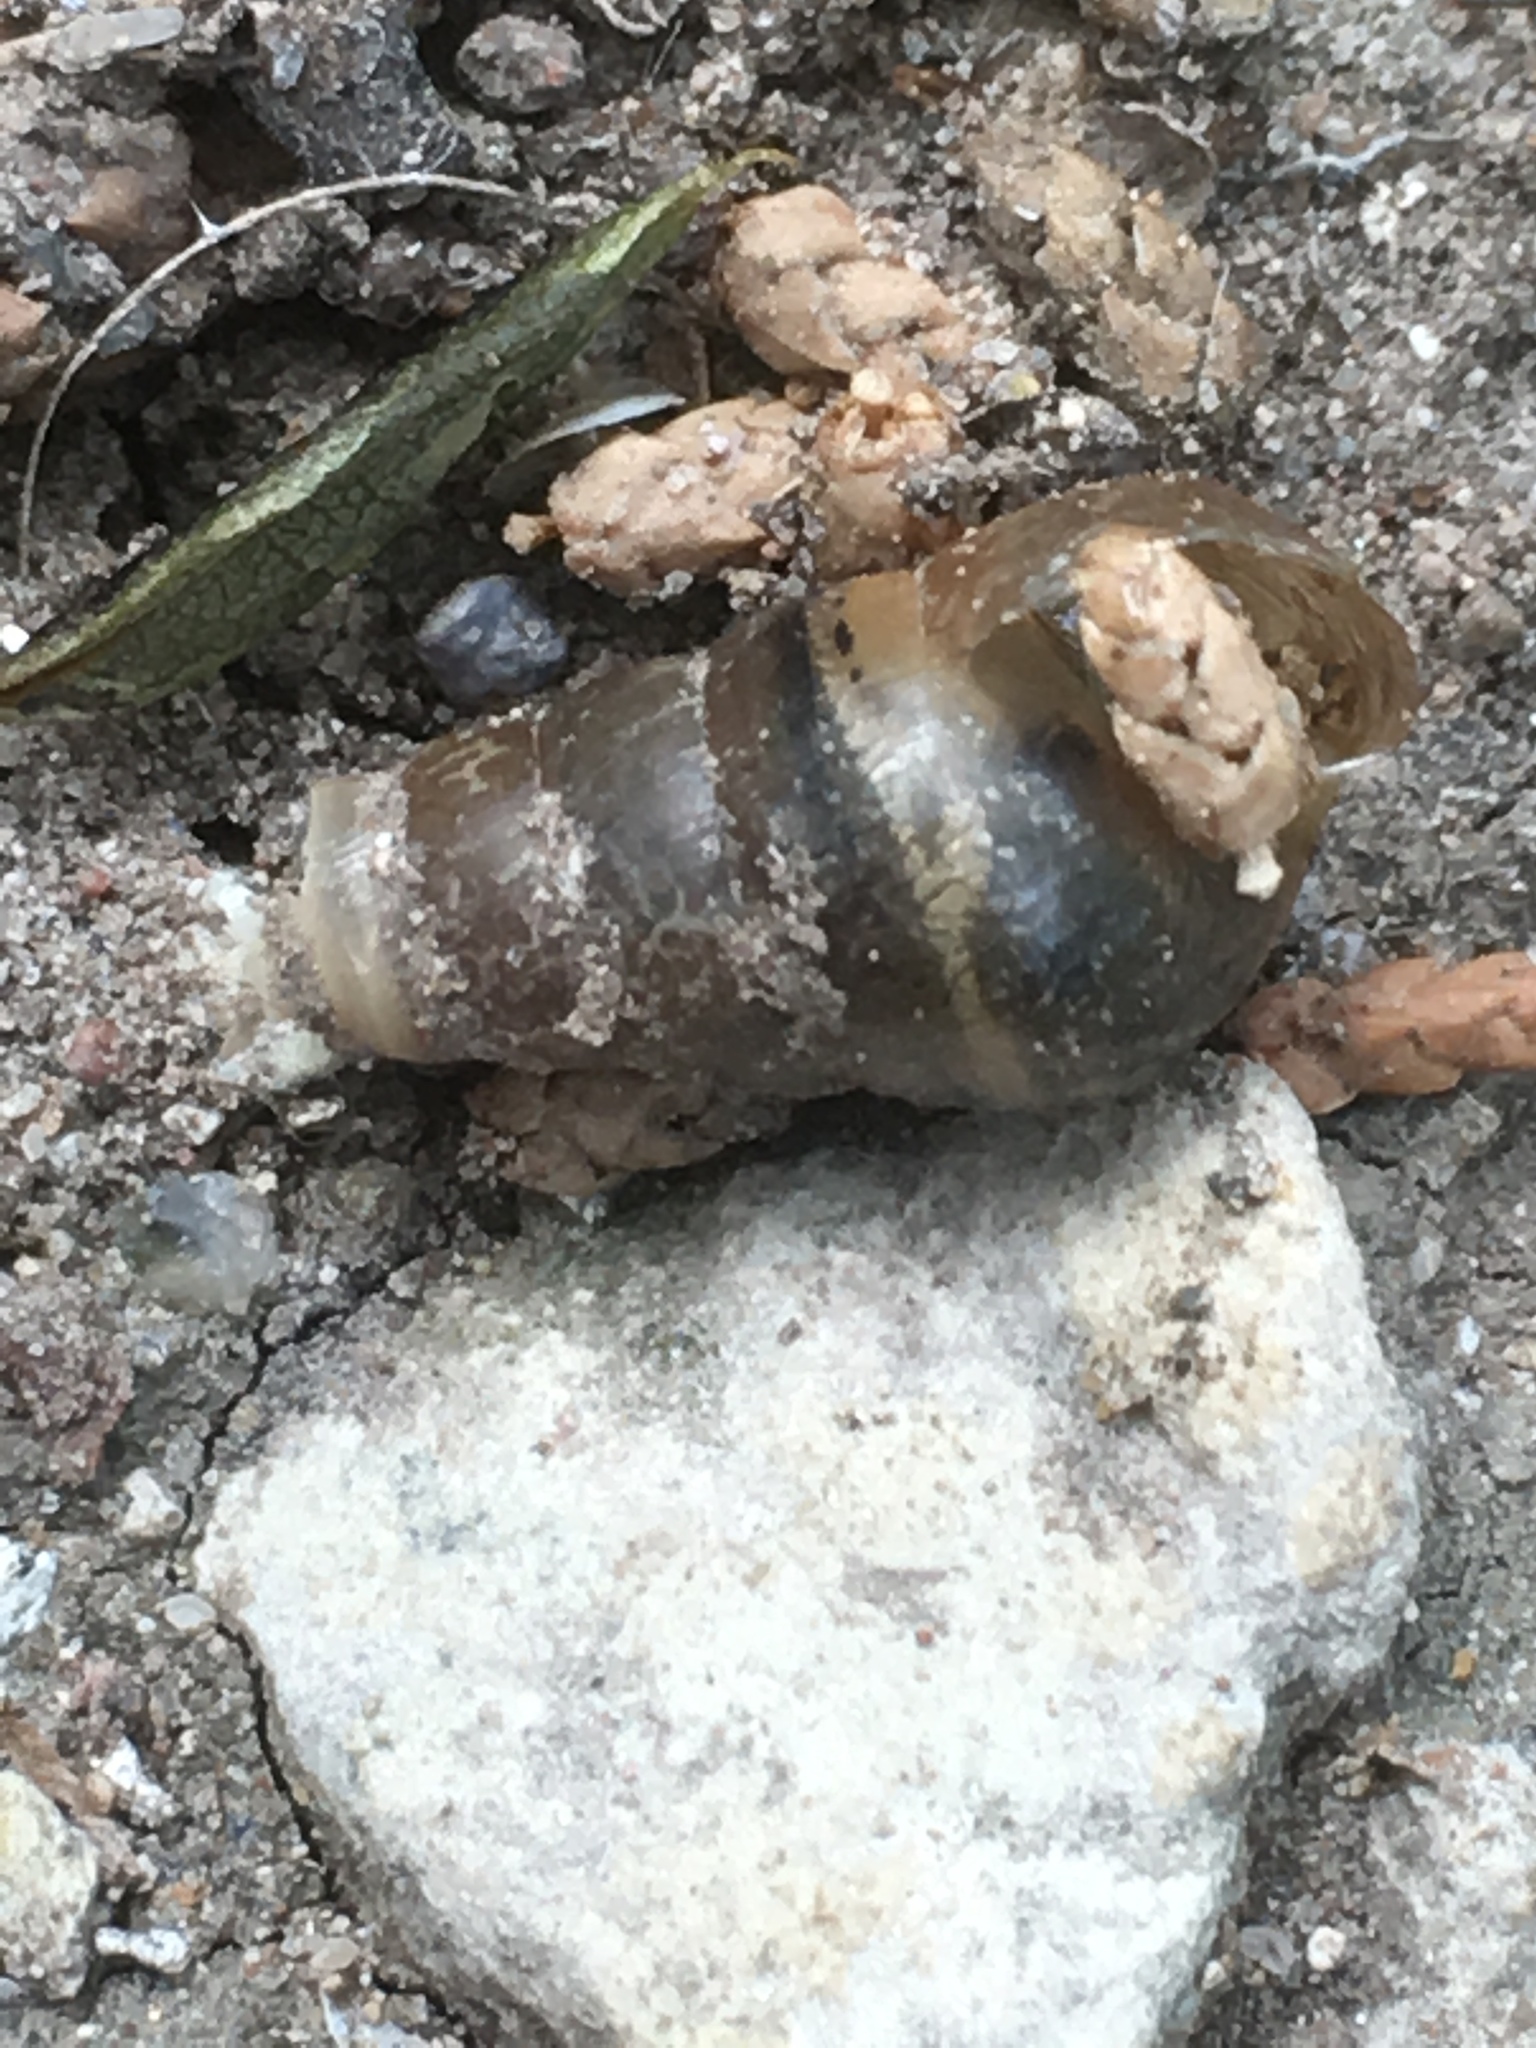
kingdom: Animalia
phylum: Mollusca
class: Gastropoda
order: Stylommatophora
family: Achatinidae
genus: Rumina
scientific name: Rumina decollata
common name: Decollate snail
